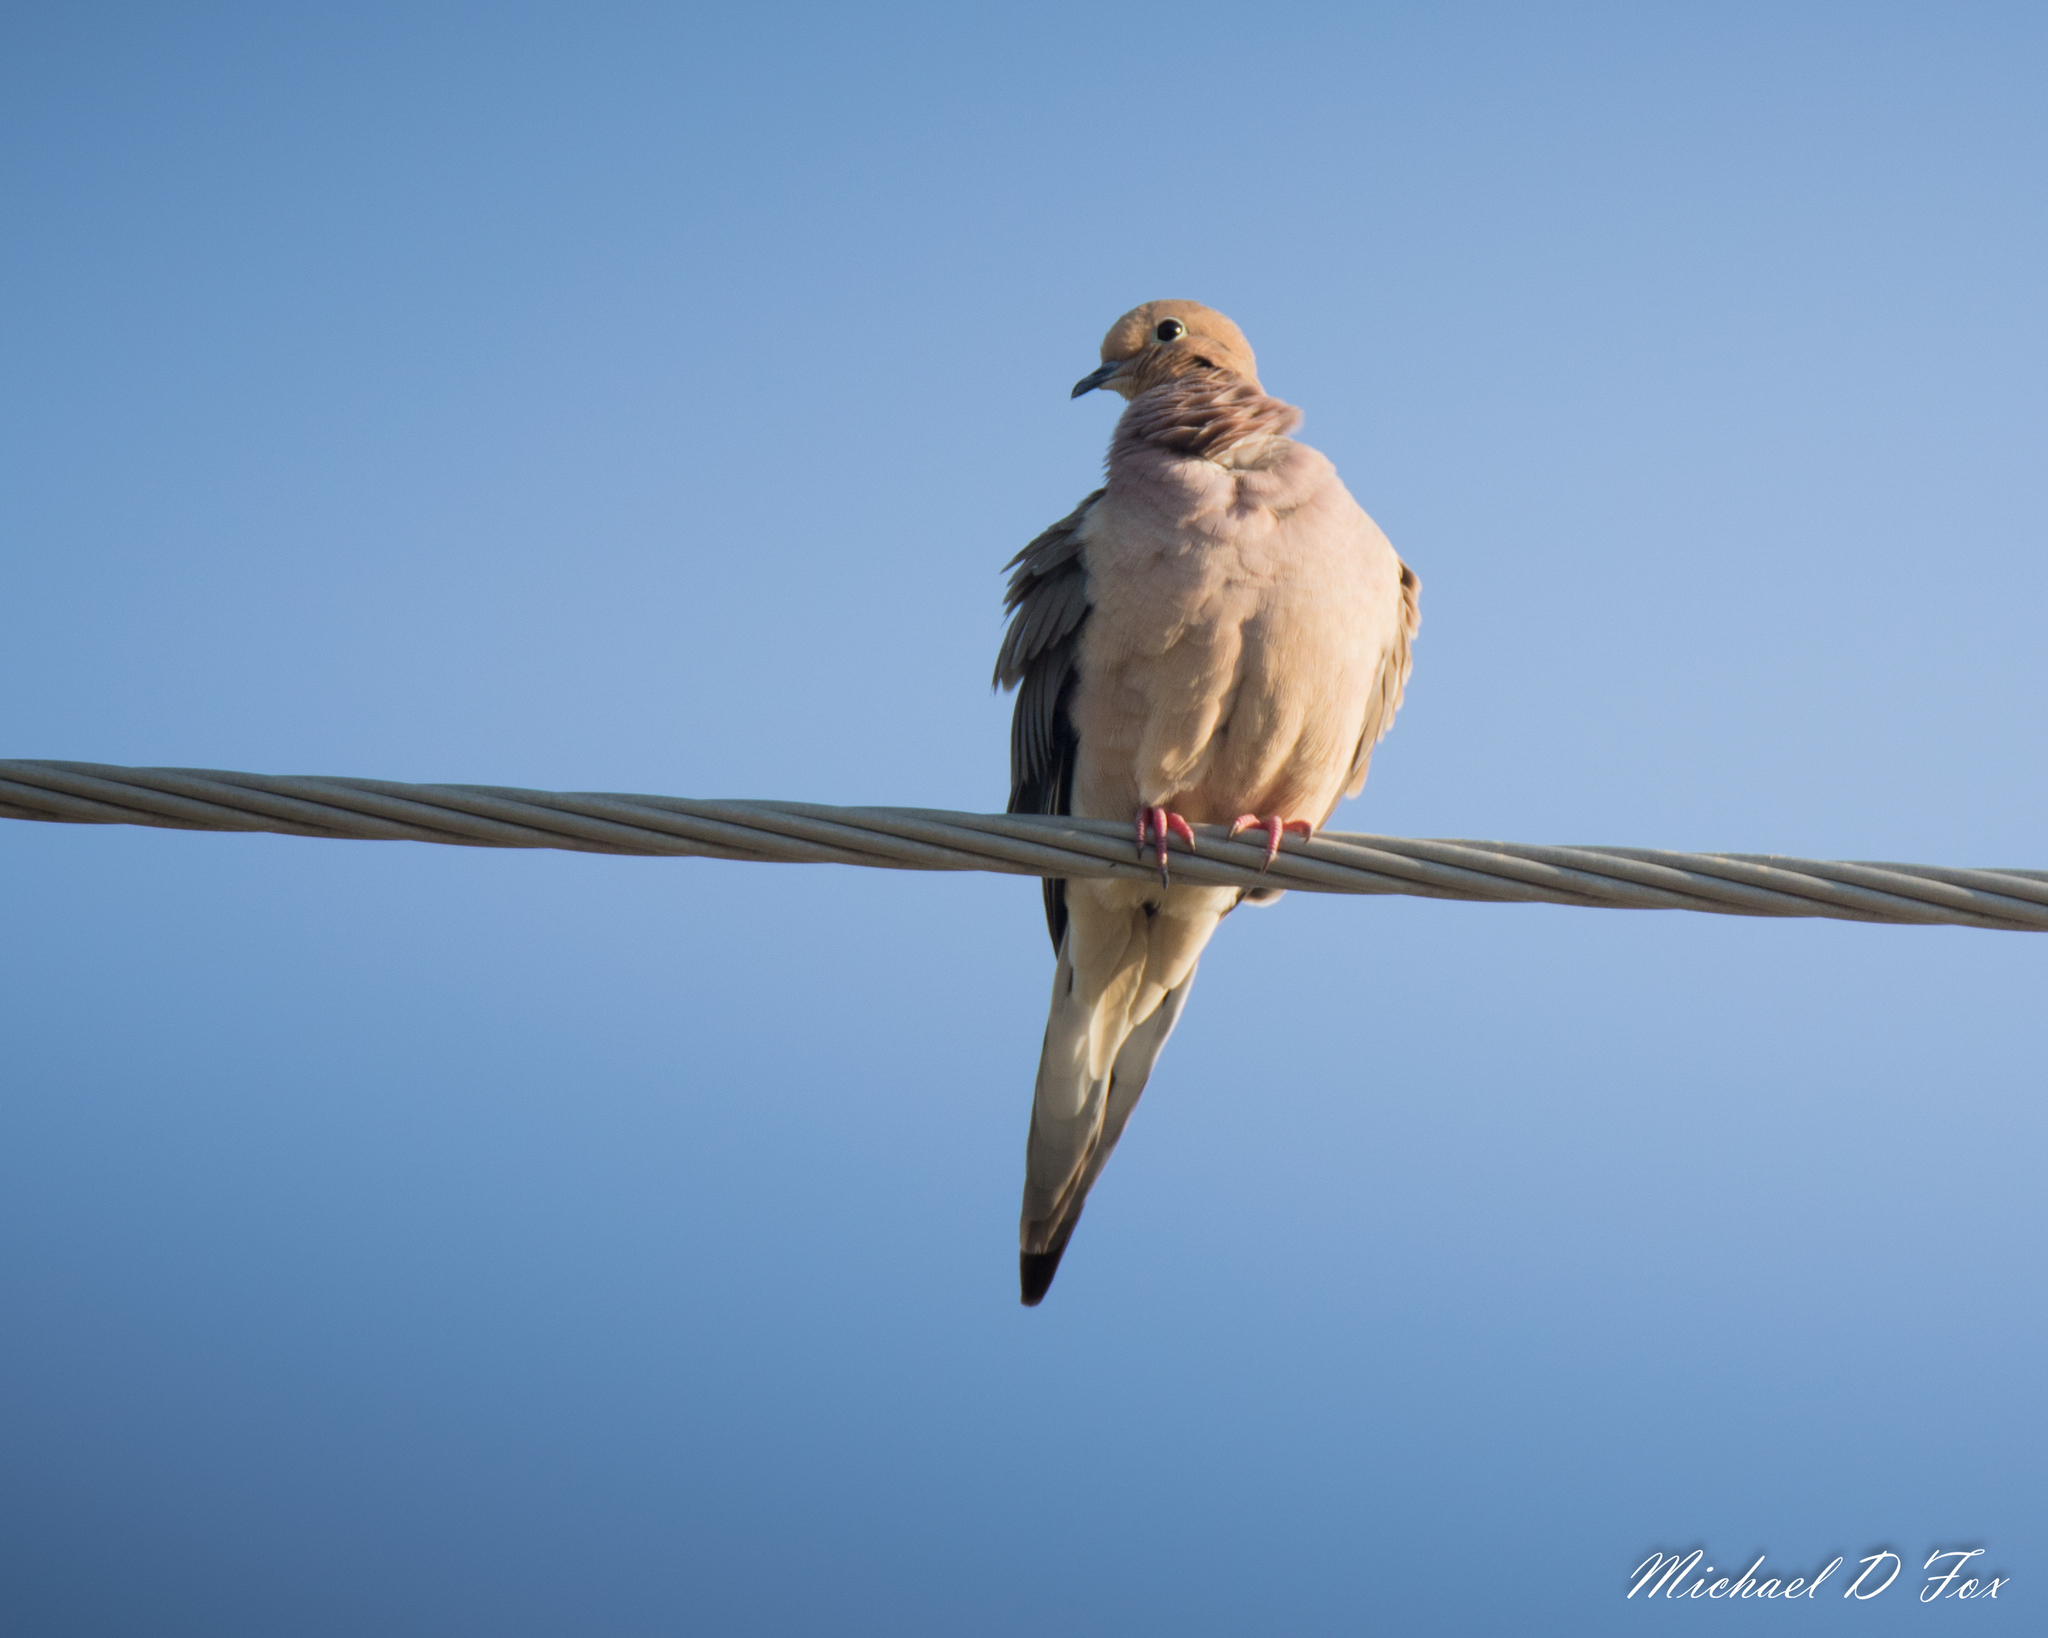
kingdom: Animalia
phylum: Chordata
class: Aves
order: Columbiformes
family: Columbidae
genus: Zenaida
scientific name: Zenaida macroura
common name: Mourning dove
